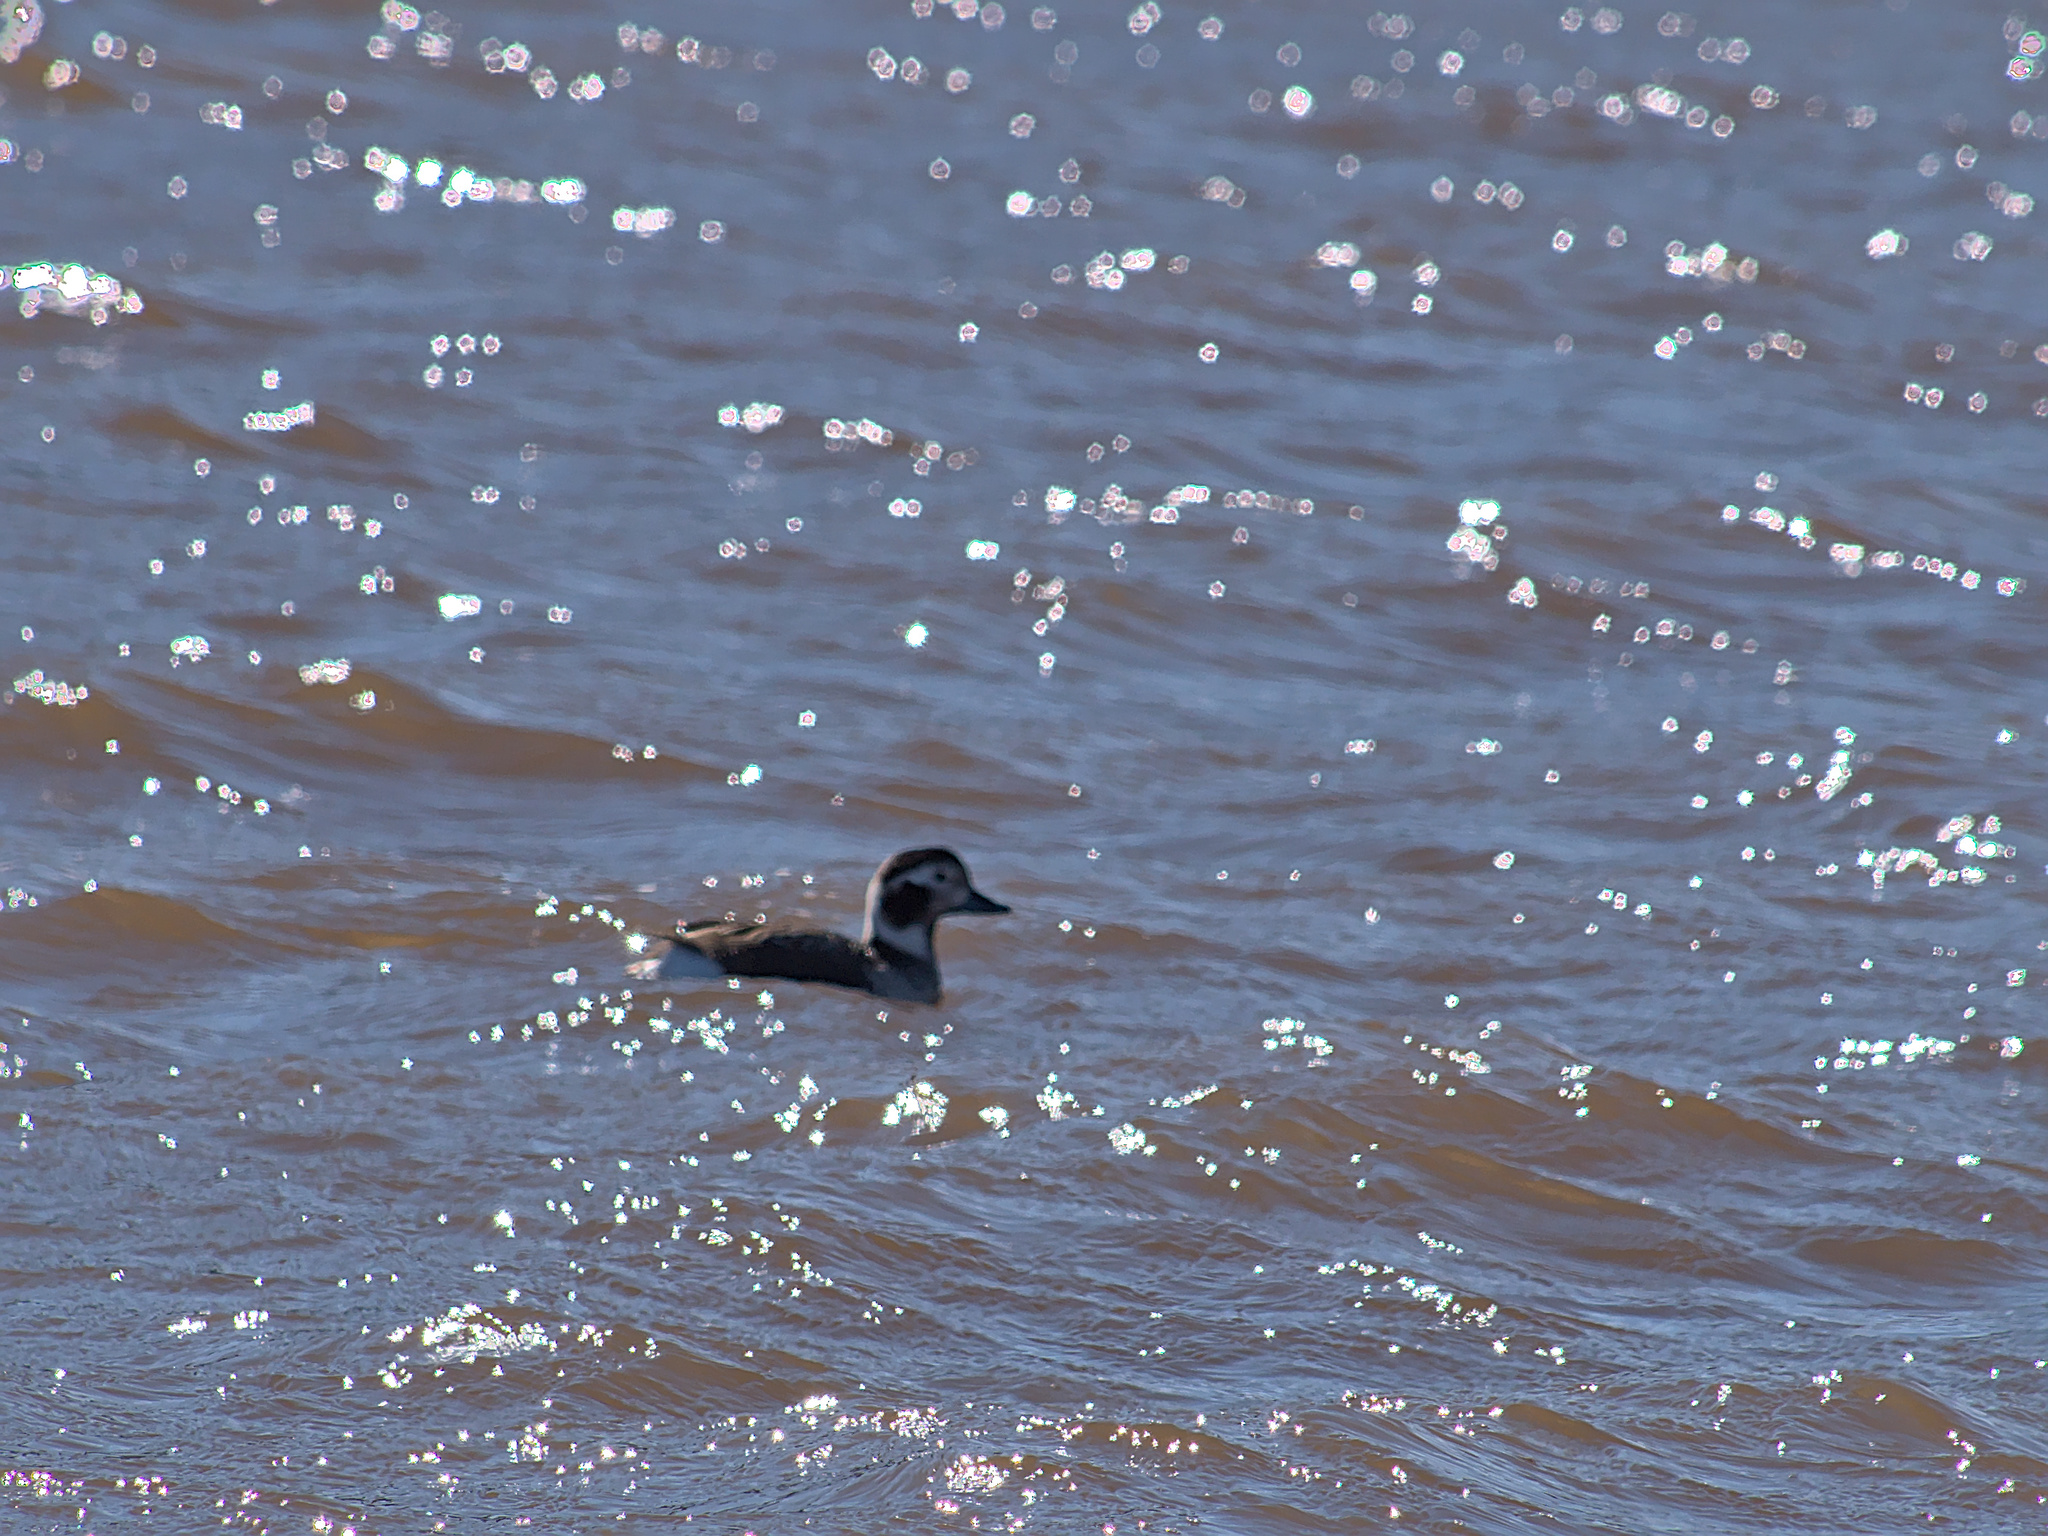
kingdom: Animalia
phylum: Chordata
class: Aves
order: Anseriformes
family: Anatidae
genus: Clangula
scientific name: Clangula hyemalis
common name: Long-tailed duck
